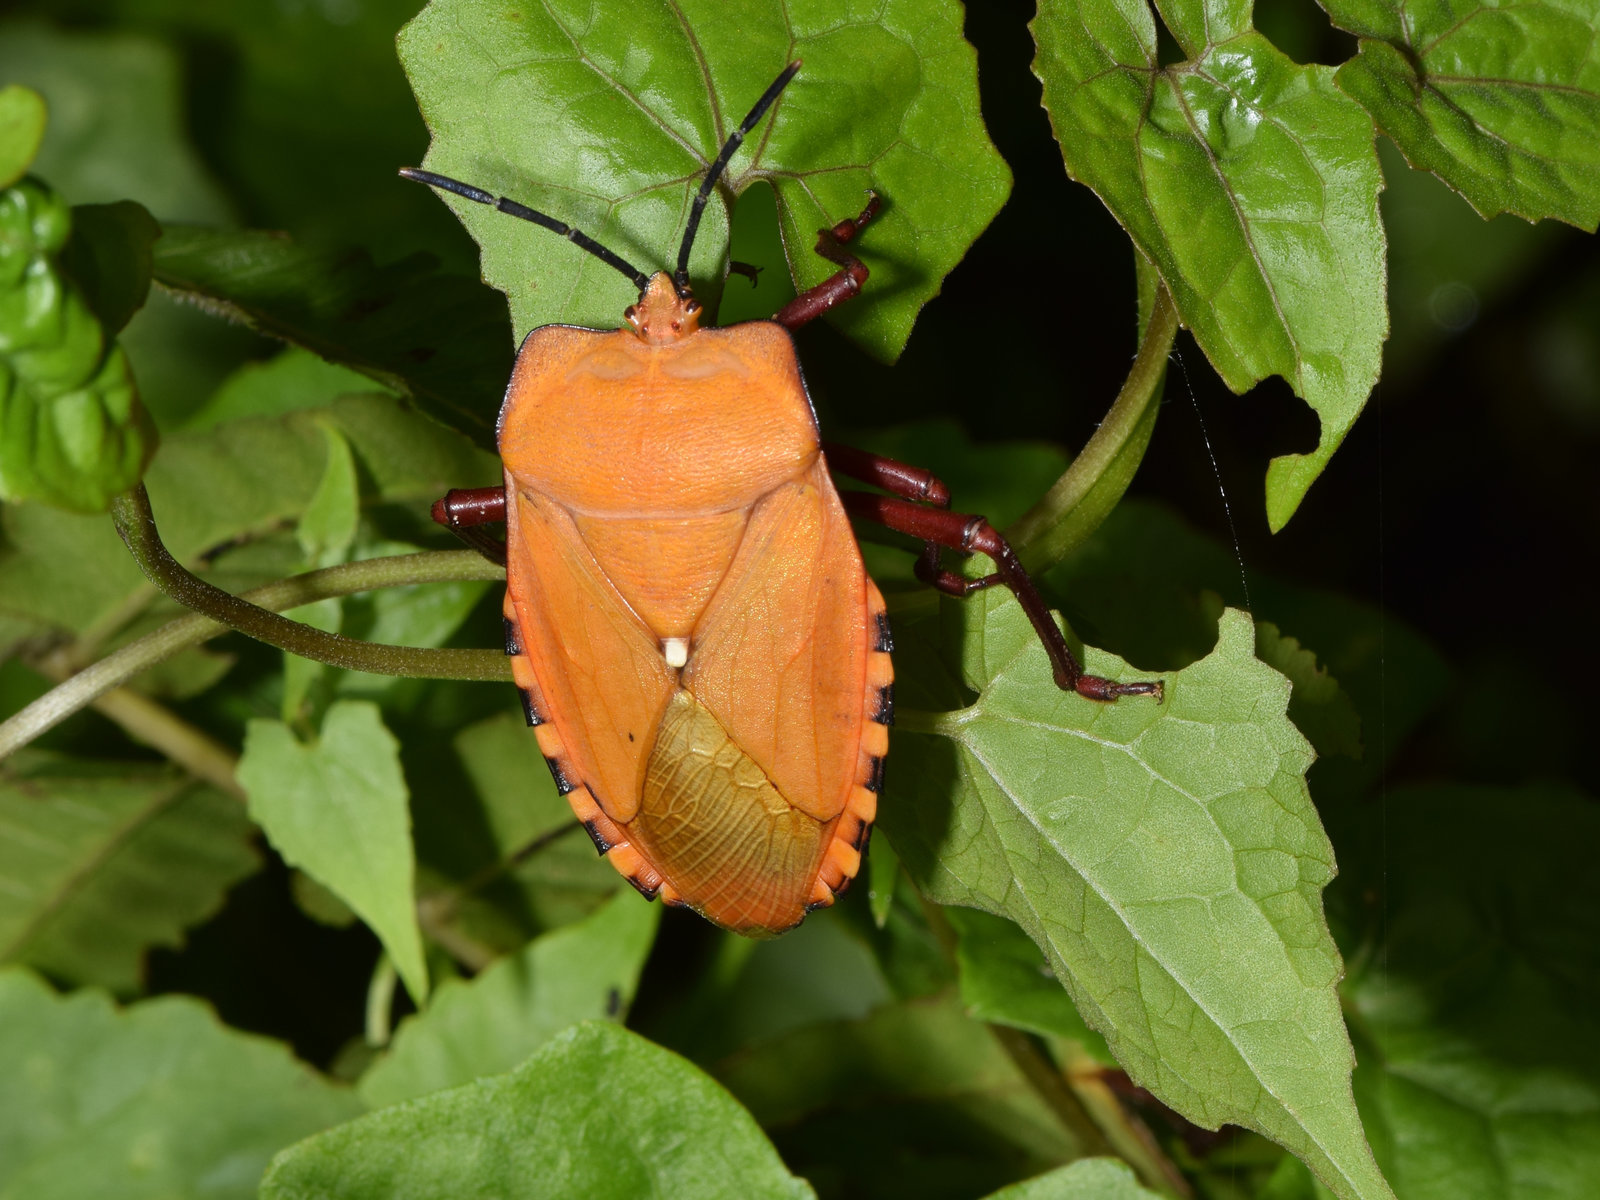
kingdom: Animalia
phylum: Arthropoda
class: Insecta
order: Hemiptera
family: Tessaratomidae
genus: Pycanum
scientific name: Pycanum ponderosum
